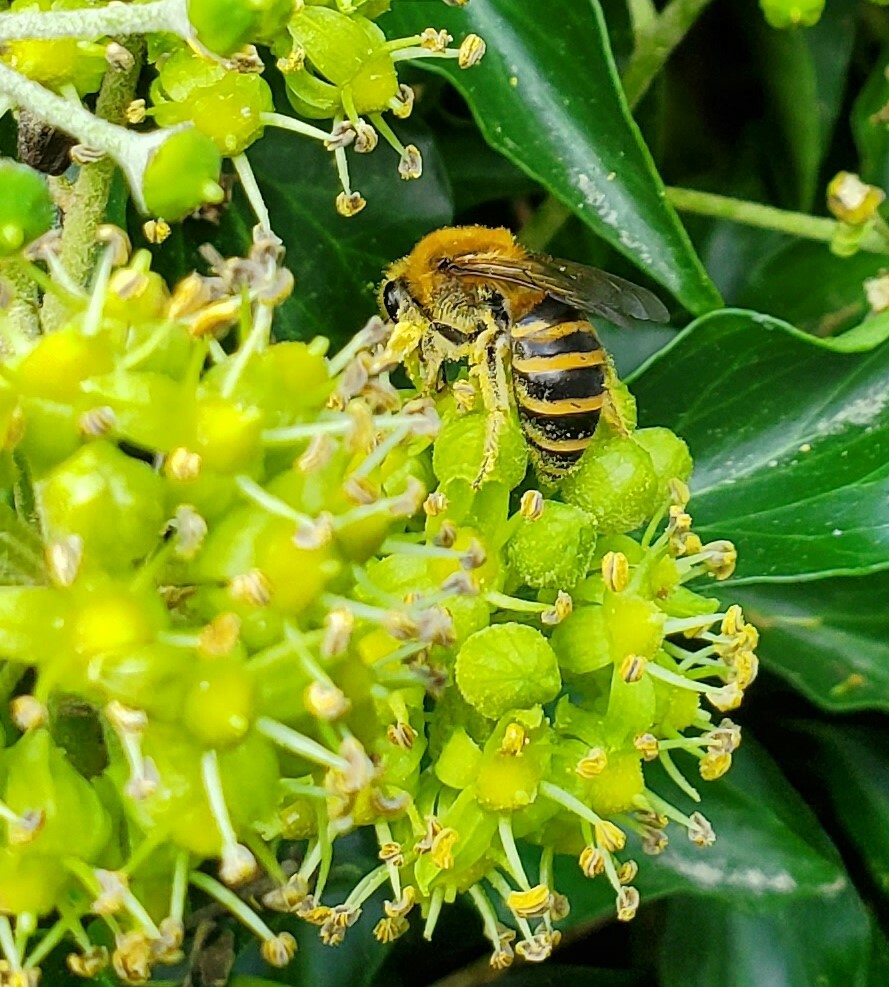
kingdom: Animalia
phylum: Arthropoda
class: Insecta
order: Hymenoptera
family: Colletidae
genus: Colletes
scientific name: Colletes hederae
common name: Ivy bee
